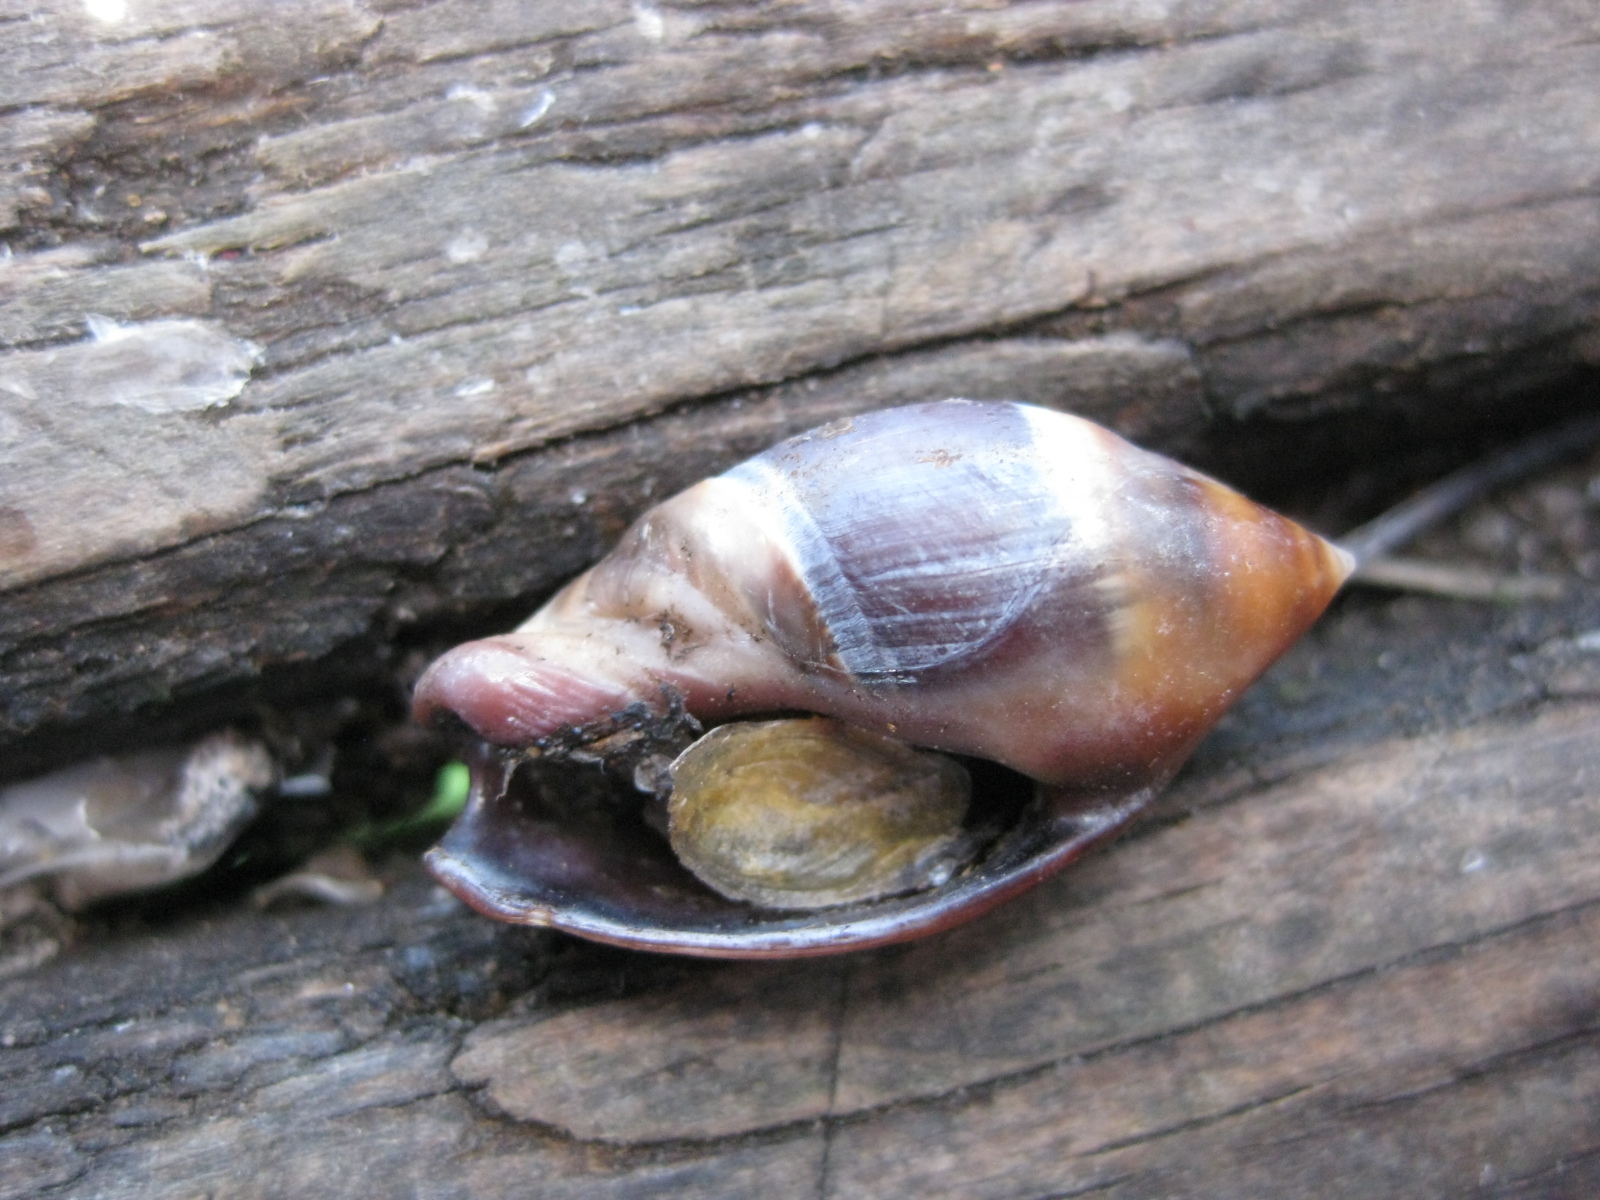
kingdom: Animalia
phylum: Mollusca
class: Gastropoda
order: Neogastropoda
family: Ancillariidae
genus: Amalda
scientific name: Amalda australis
